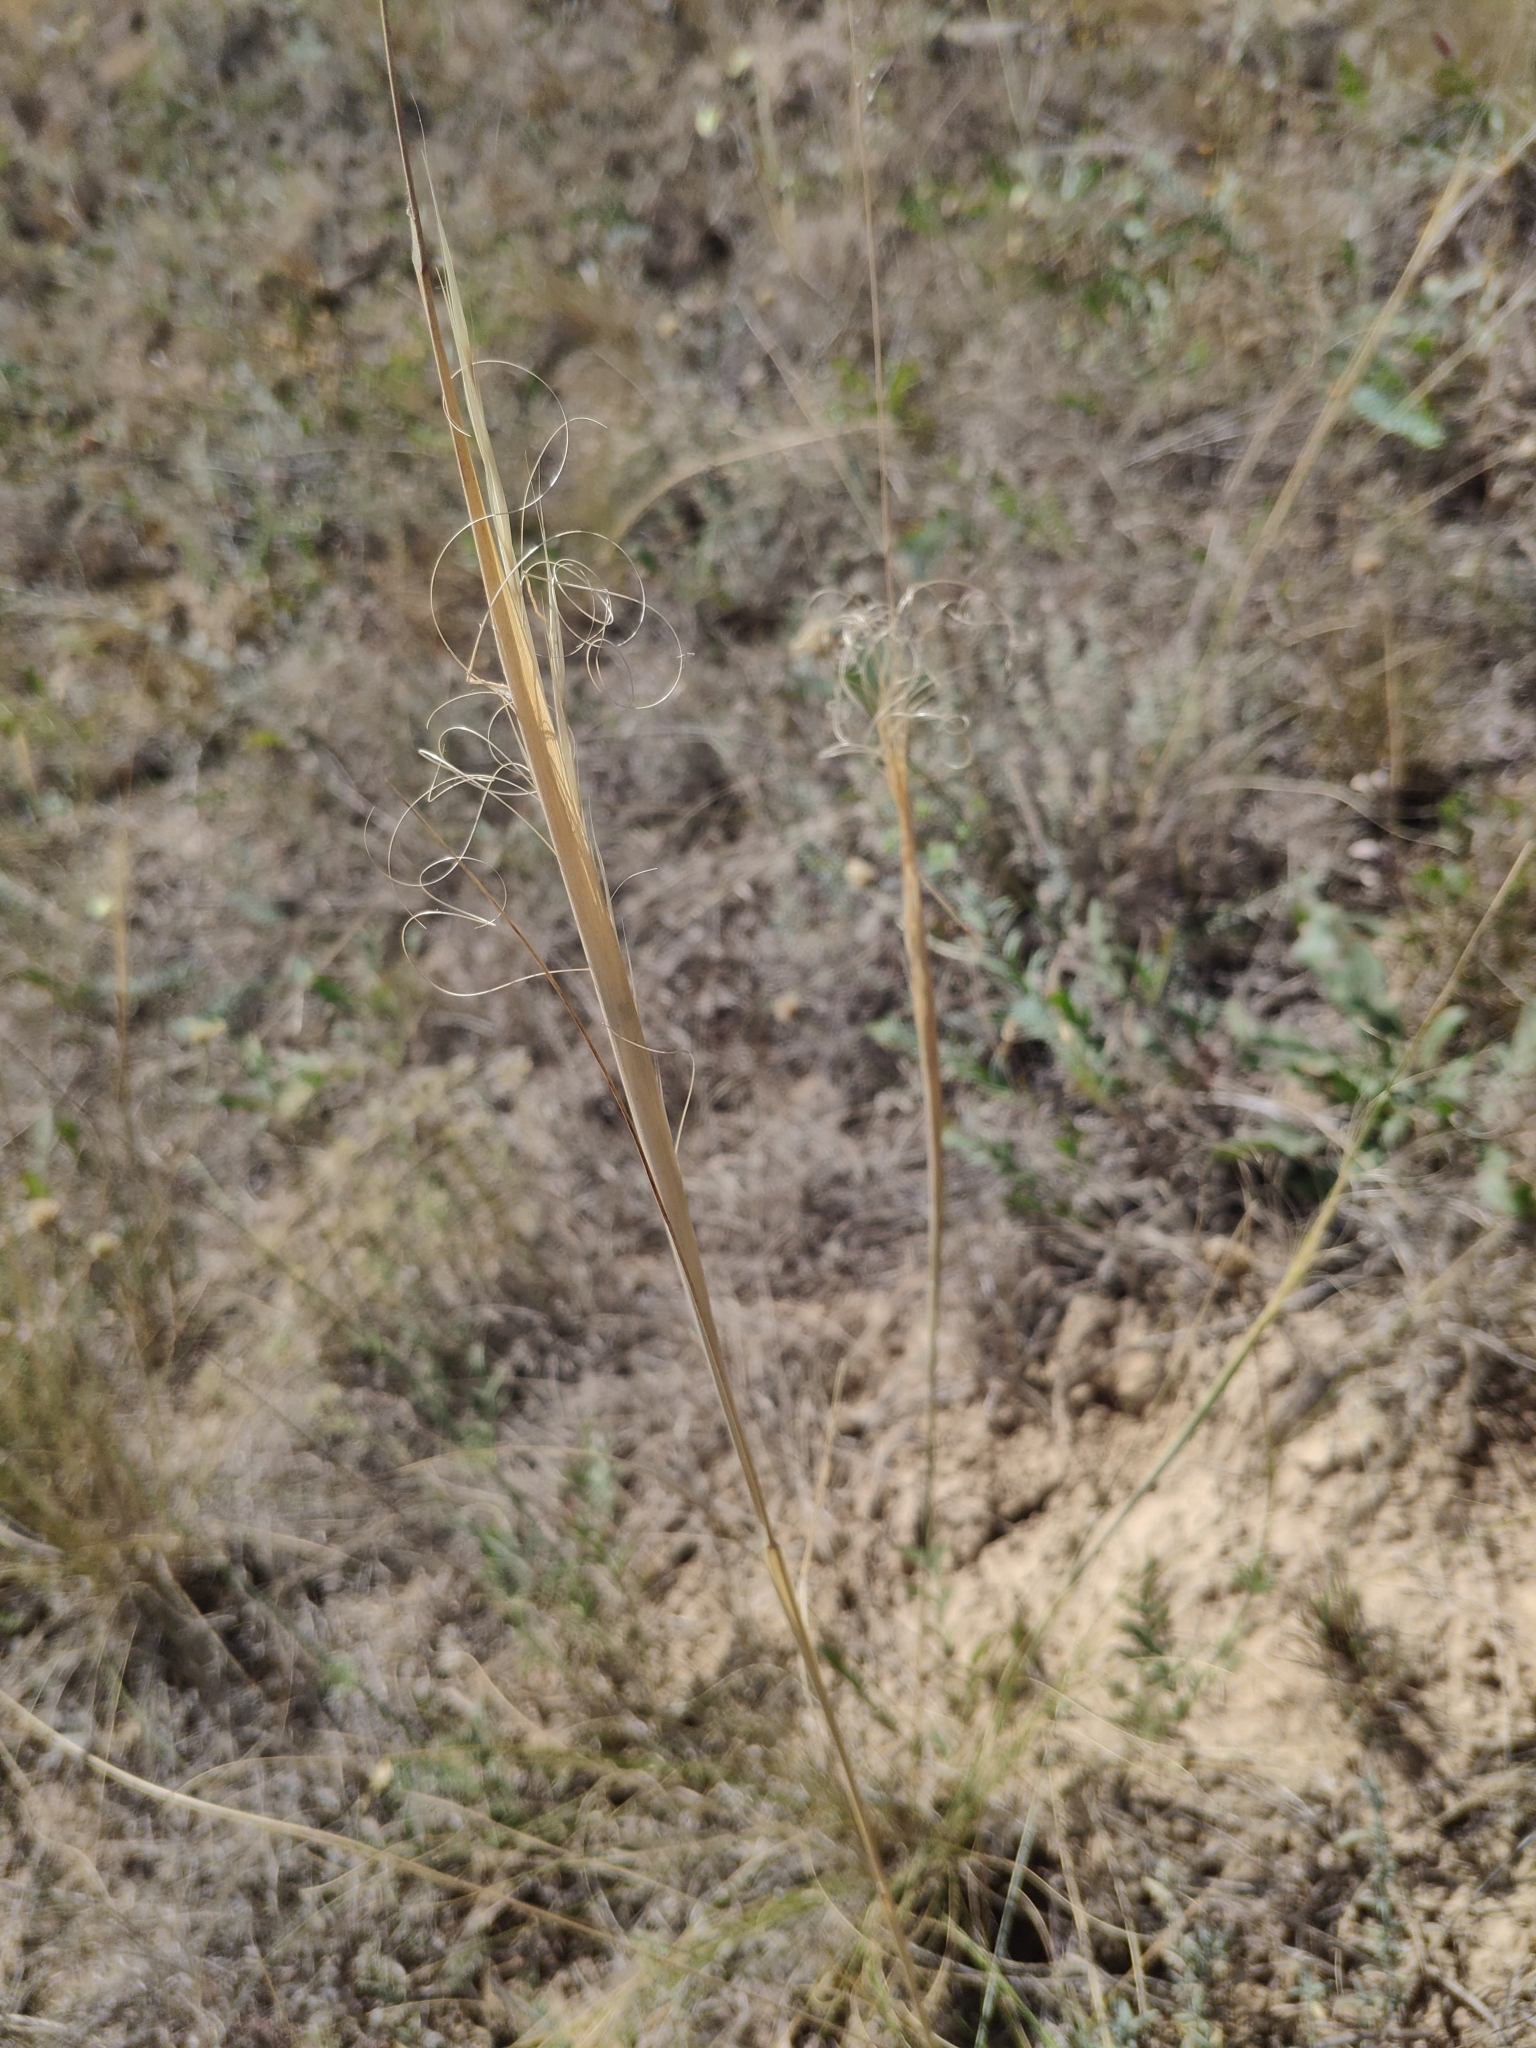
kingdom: Plantae
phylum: Tracheophyta
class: Liliopsida
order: Poales
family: Poaceae
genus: Stipa
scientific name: Stipa capillata
